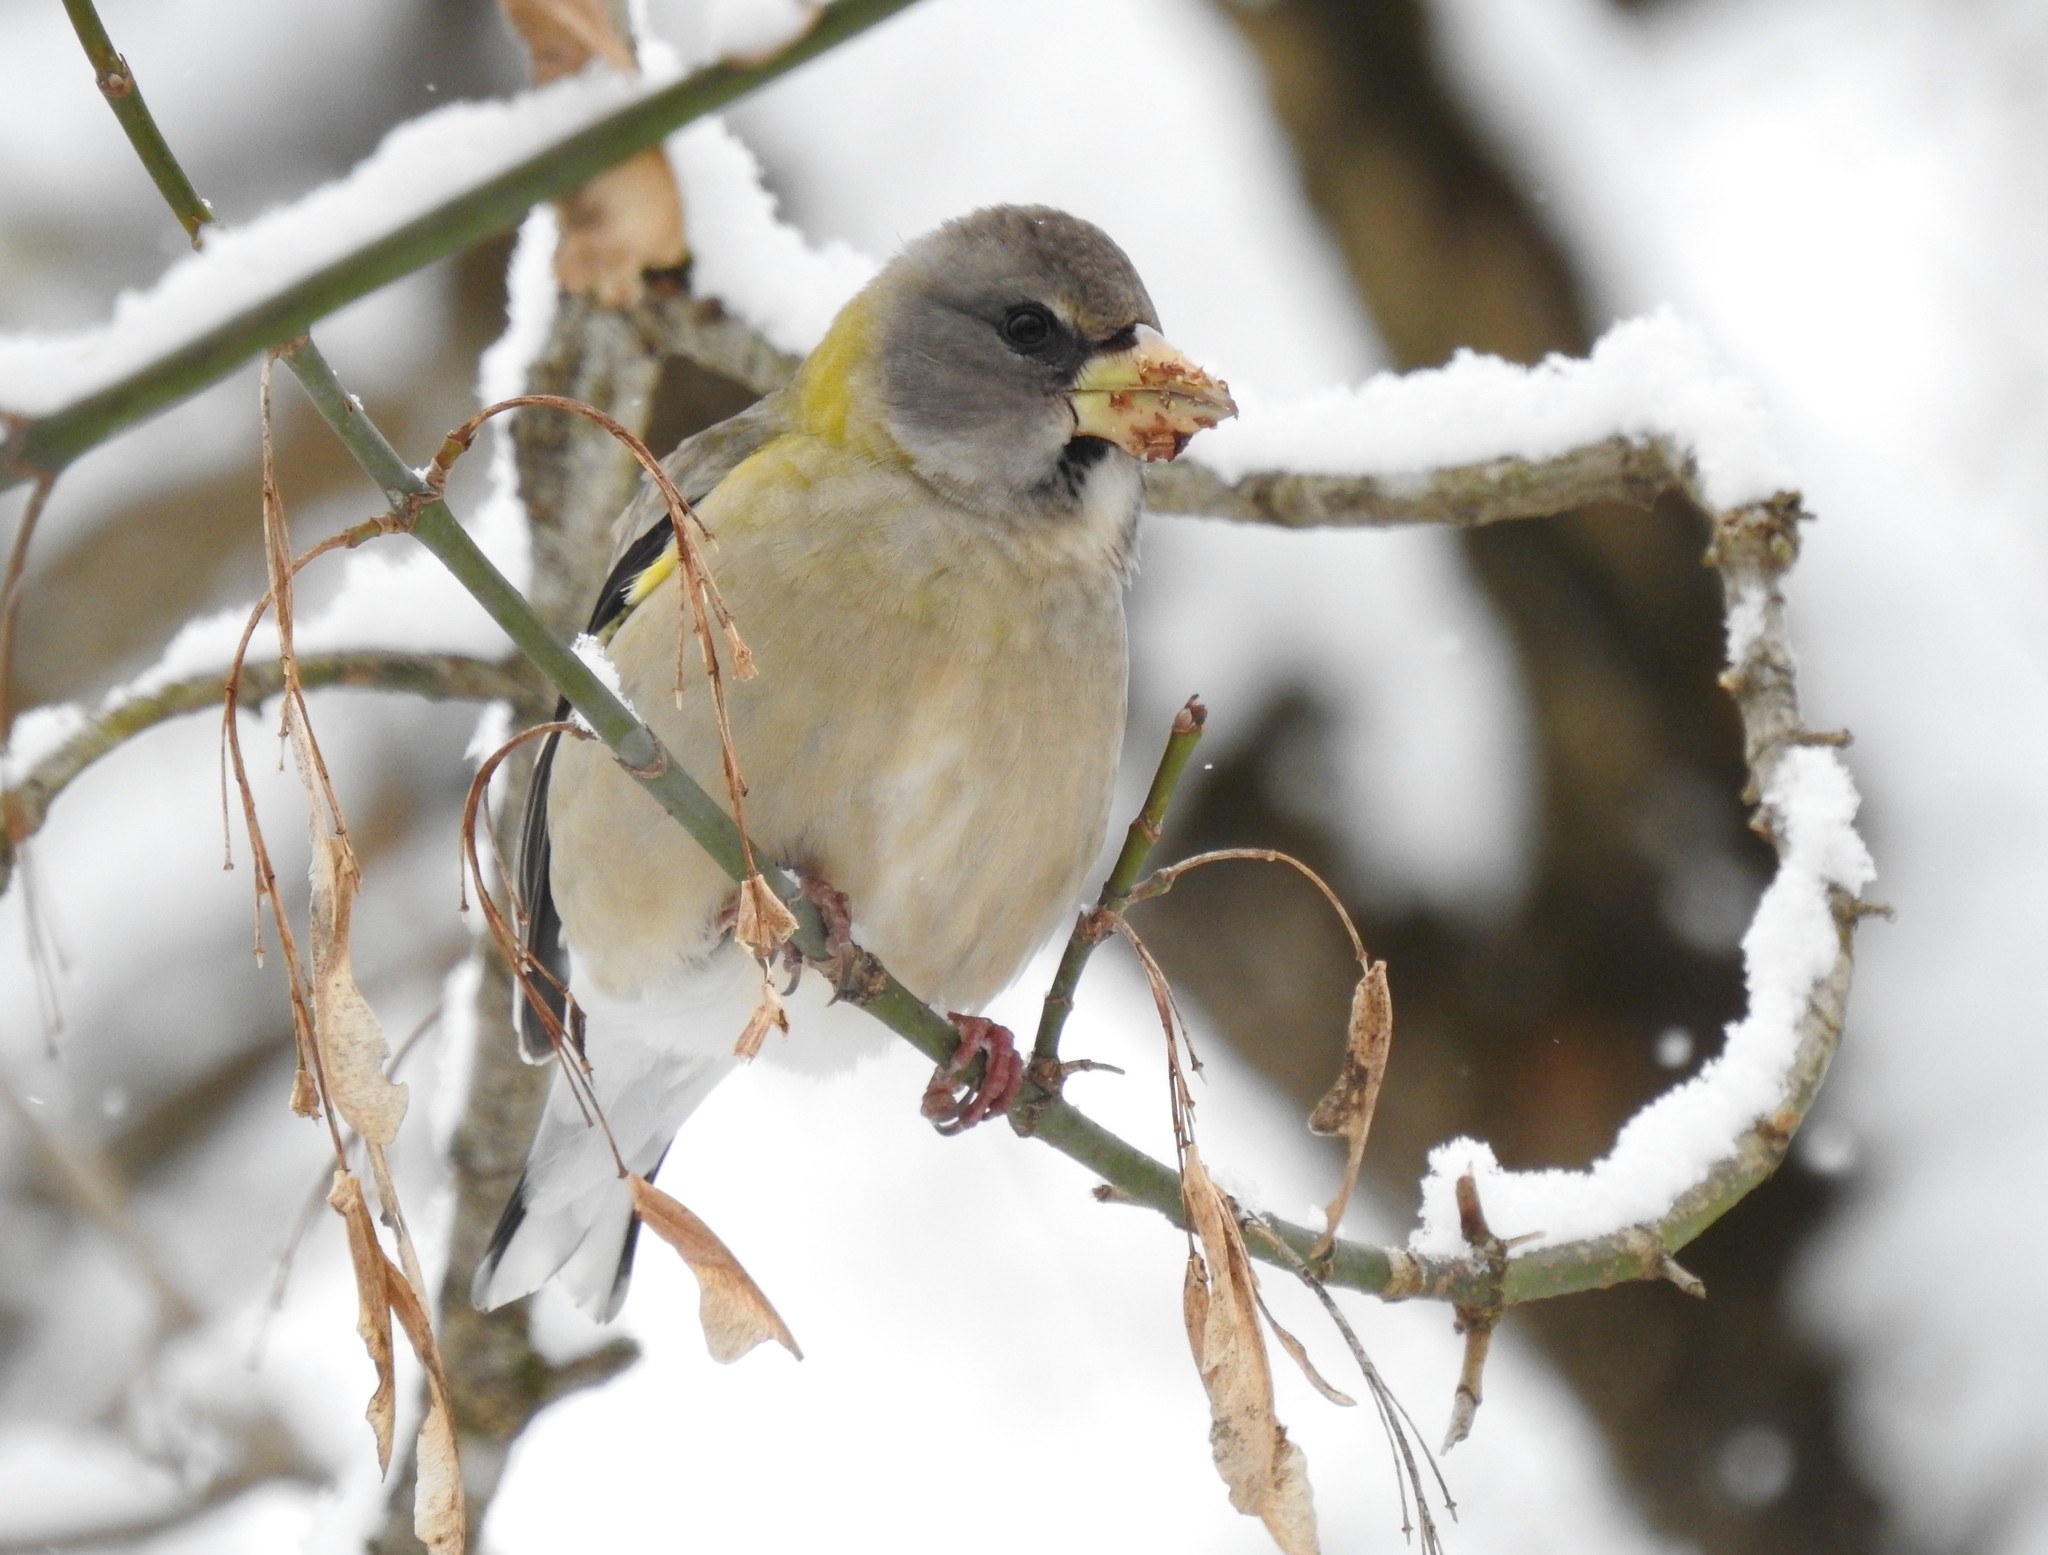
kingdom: Animalia
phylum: Chordata
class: Aves
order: Passeriformes
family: Fringillidae
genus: Hesperiphona
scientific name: Hesperiphona vespertina
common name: Evening grosbeak
